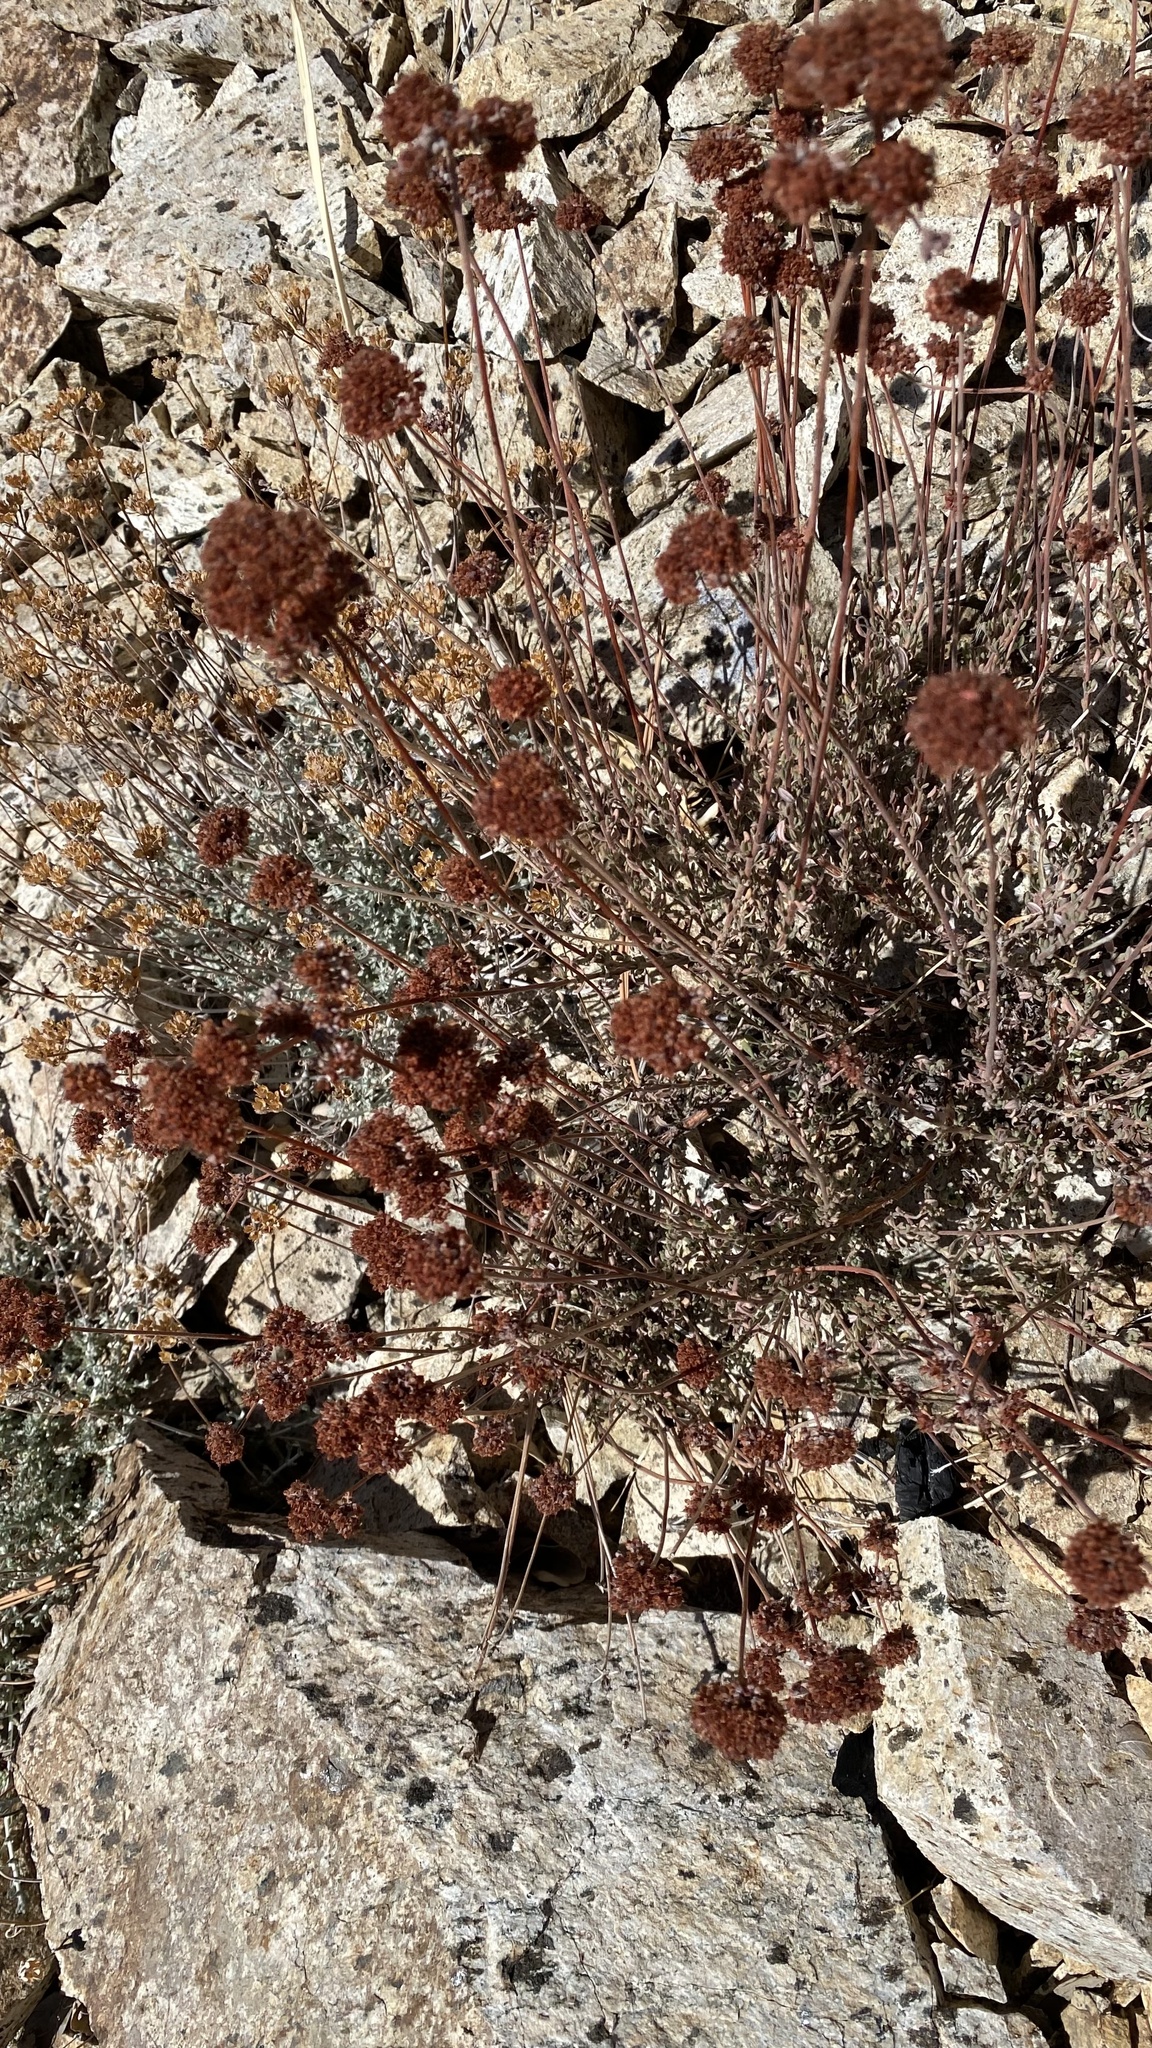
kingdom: Plantae
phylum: Tracheophyta
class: Magnoliopsida
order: Caryophyllales
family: Polygonaceae
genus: Eriogonum
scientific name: Eriogonum fasciculatum
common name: California wild buckwheat
